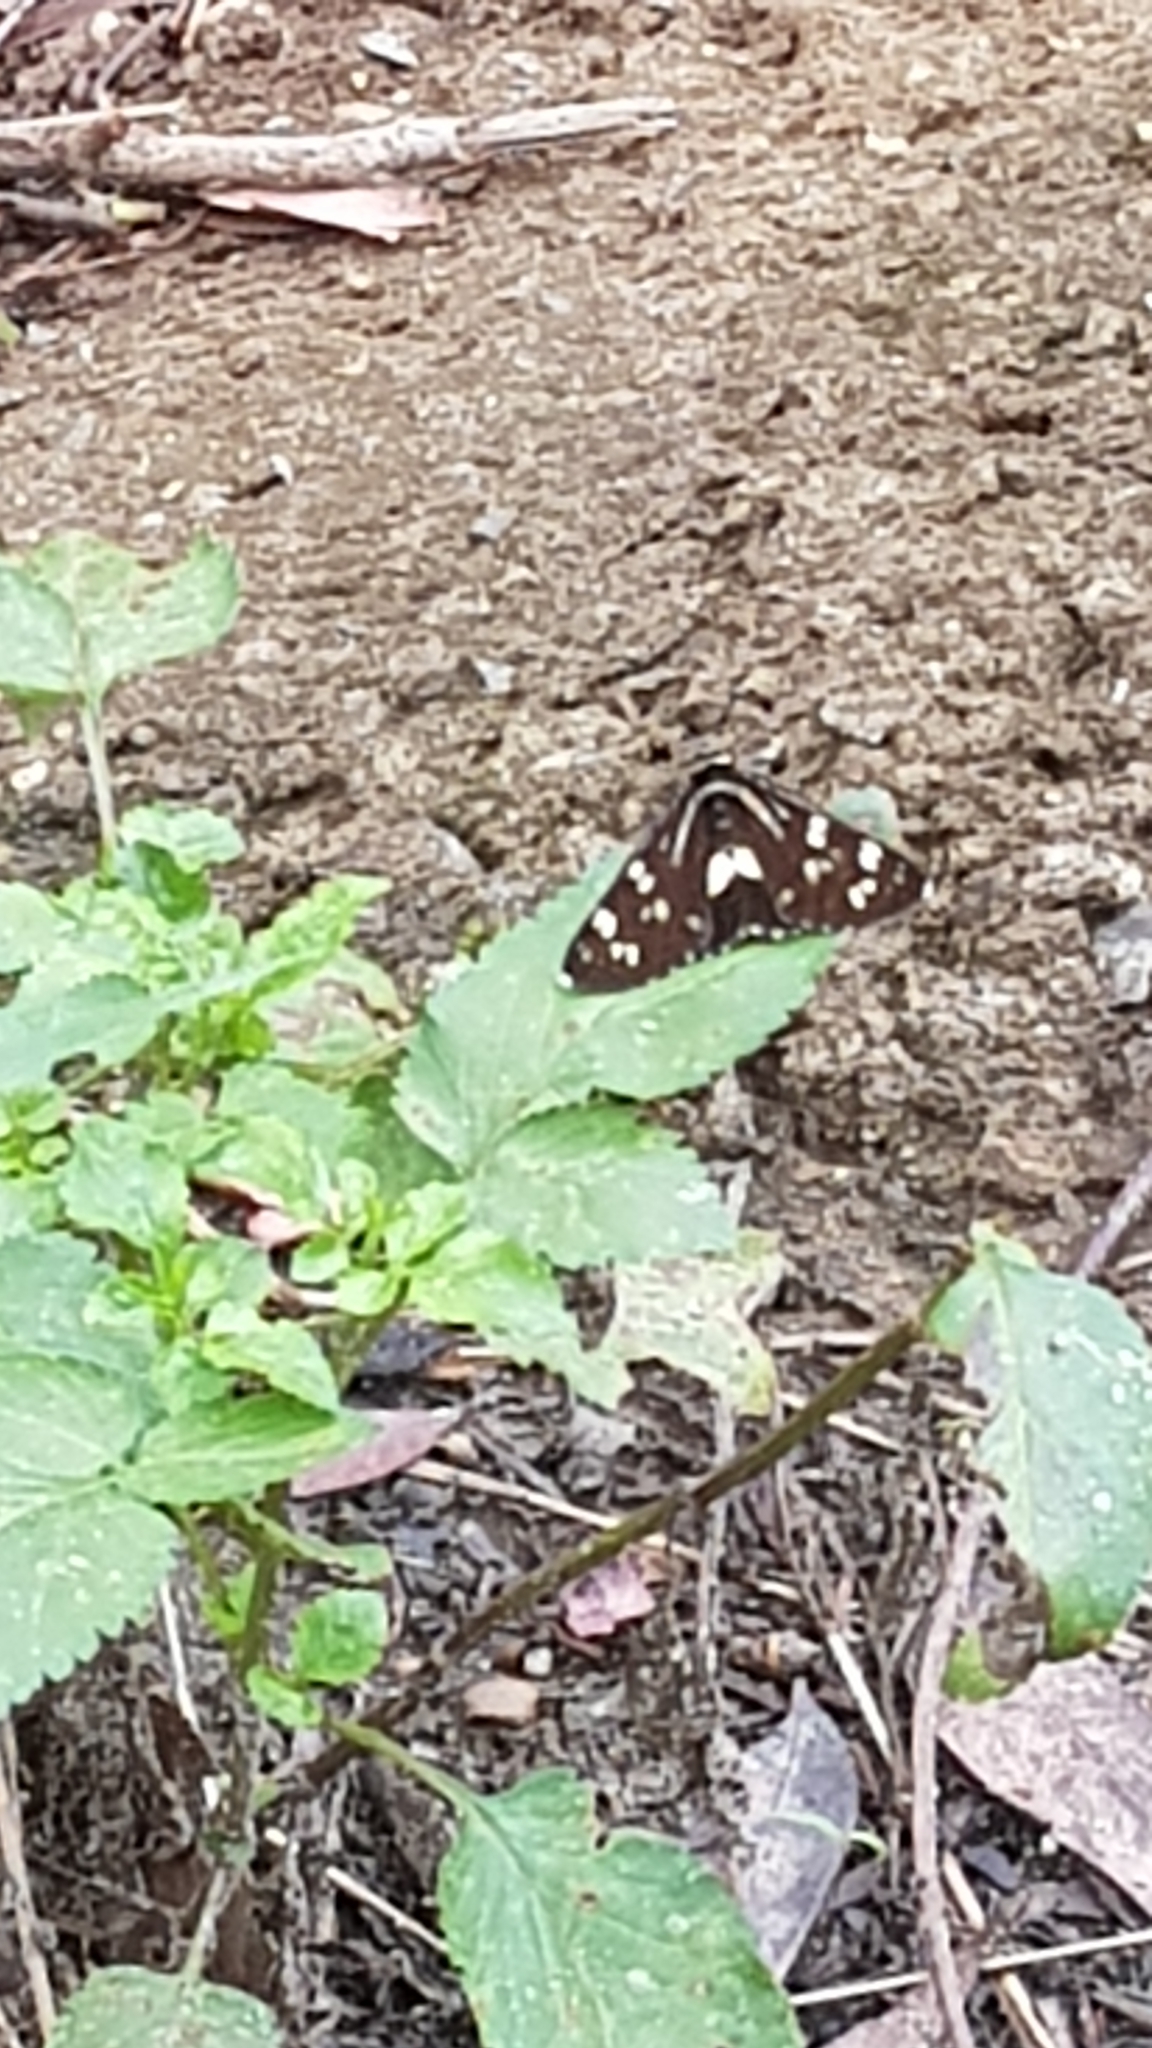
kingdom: Animalia
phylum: Arthropoda
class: Insecta
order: Lepidoptera
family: Noctuidae
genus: Cruria
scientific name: Cruria synopla
